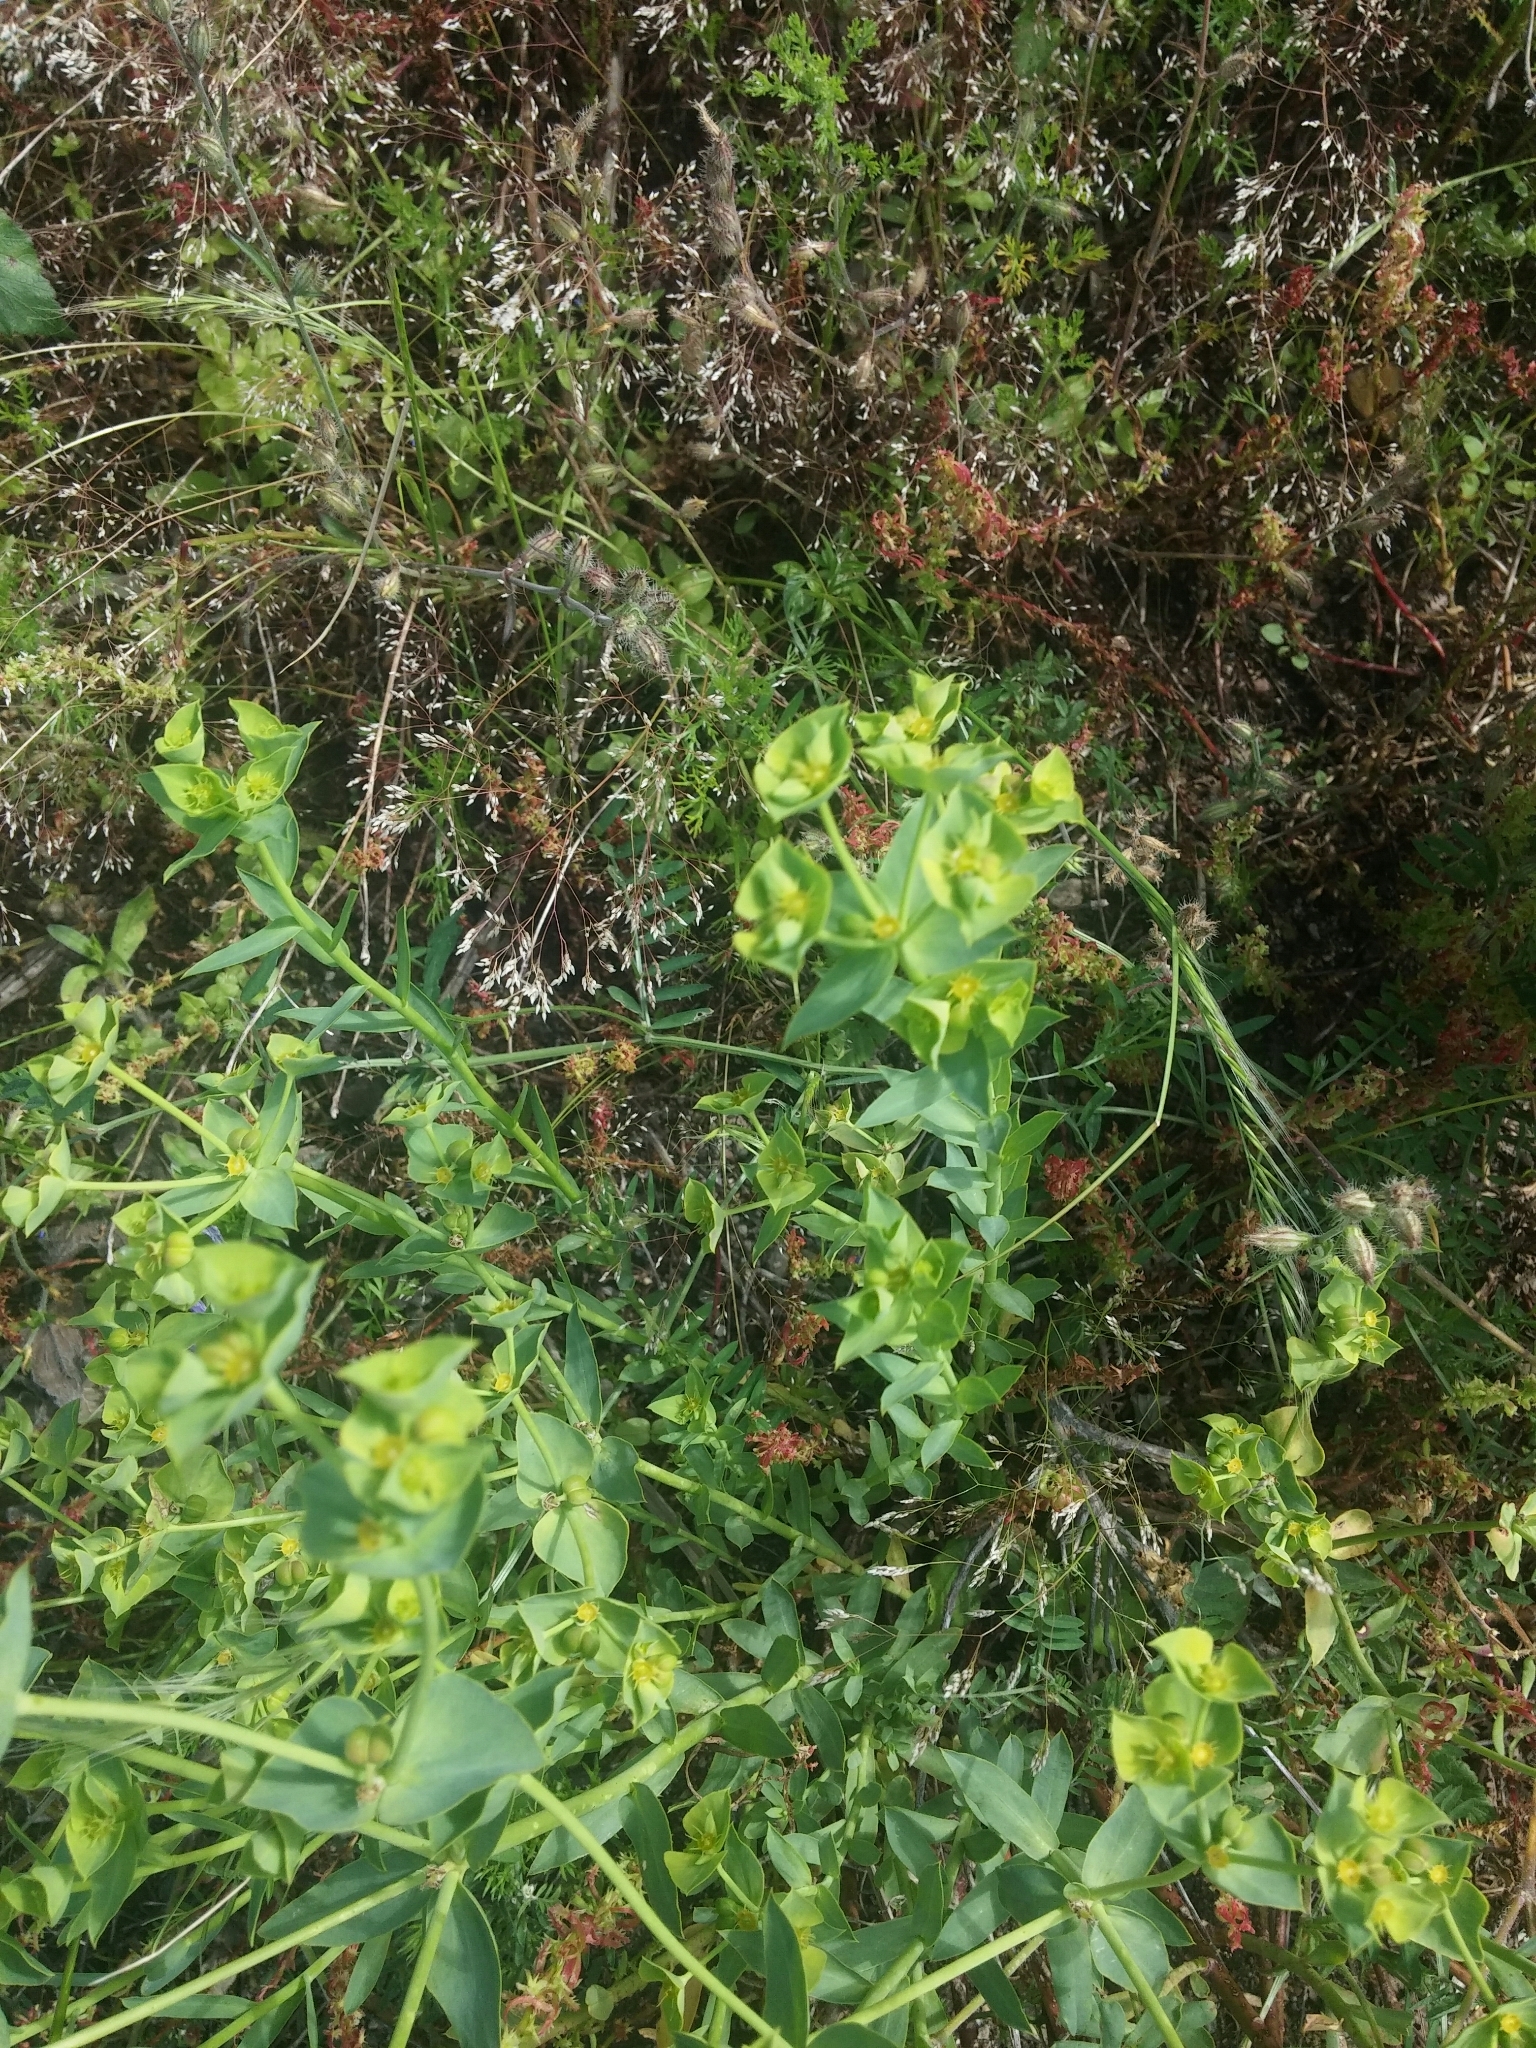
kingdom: Plantae
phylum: Tracheophyta
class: Magnoliopsida
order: Malpighiales
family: Euphorbiaceae
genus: Euphorbia
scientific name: Euphorbia terracina
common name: Geraldton carnation weed
